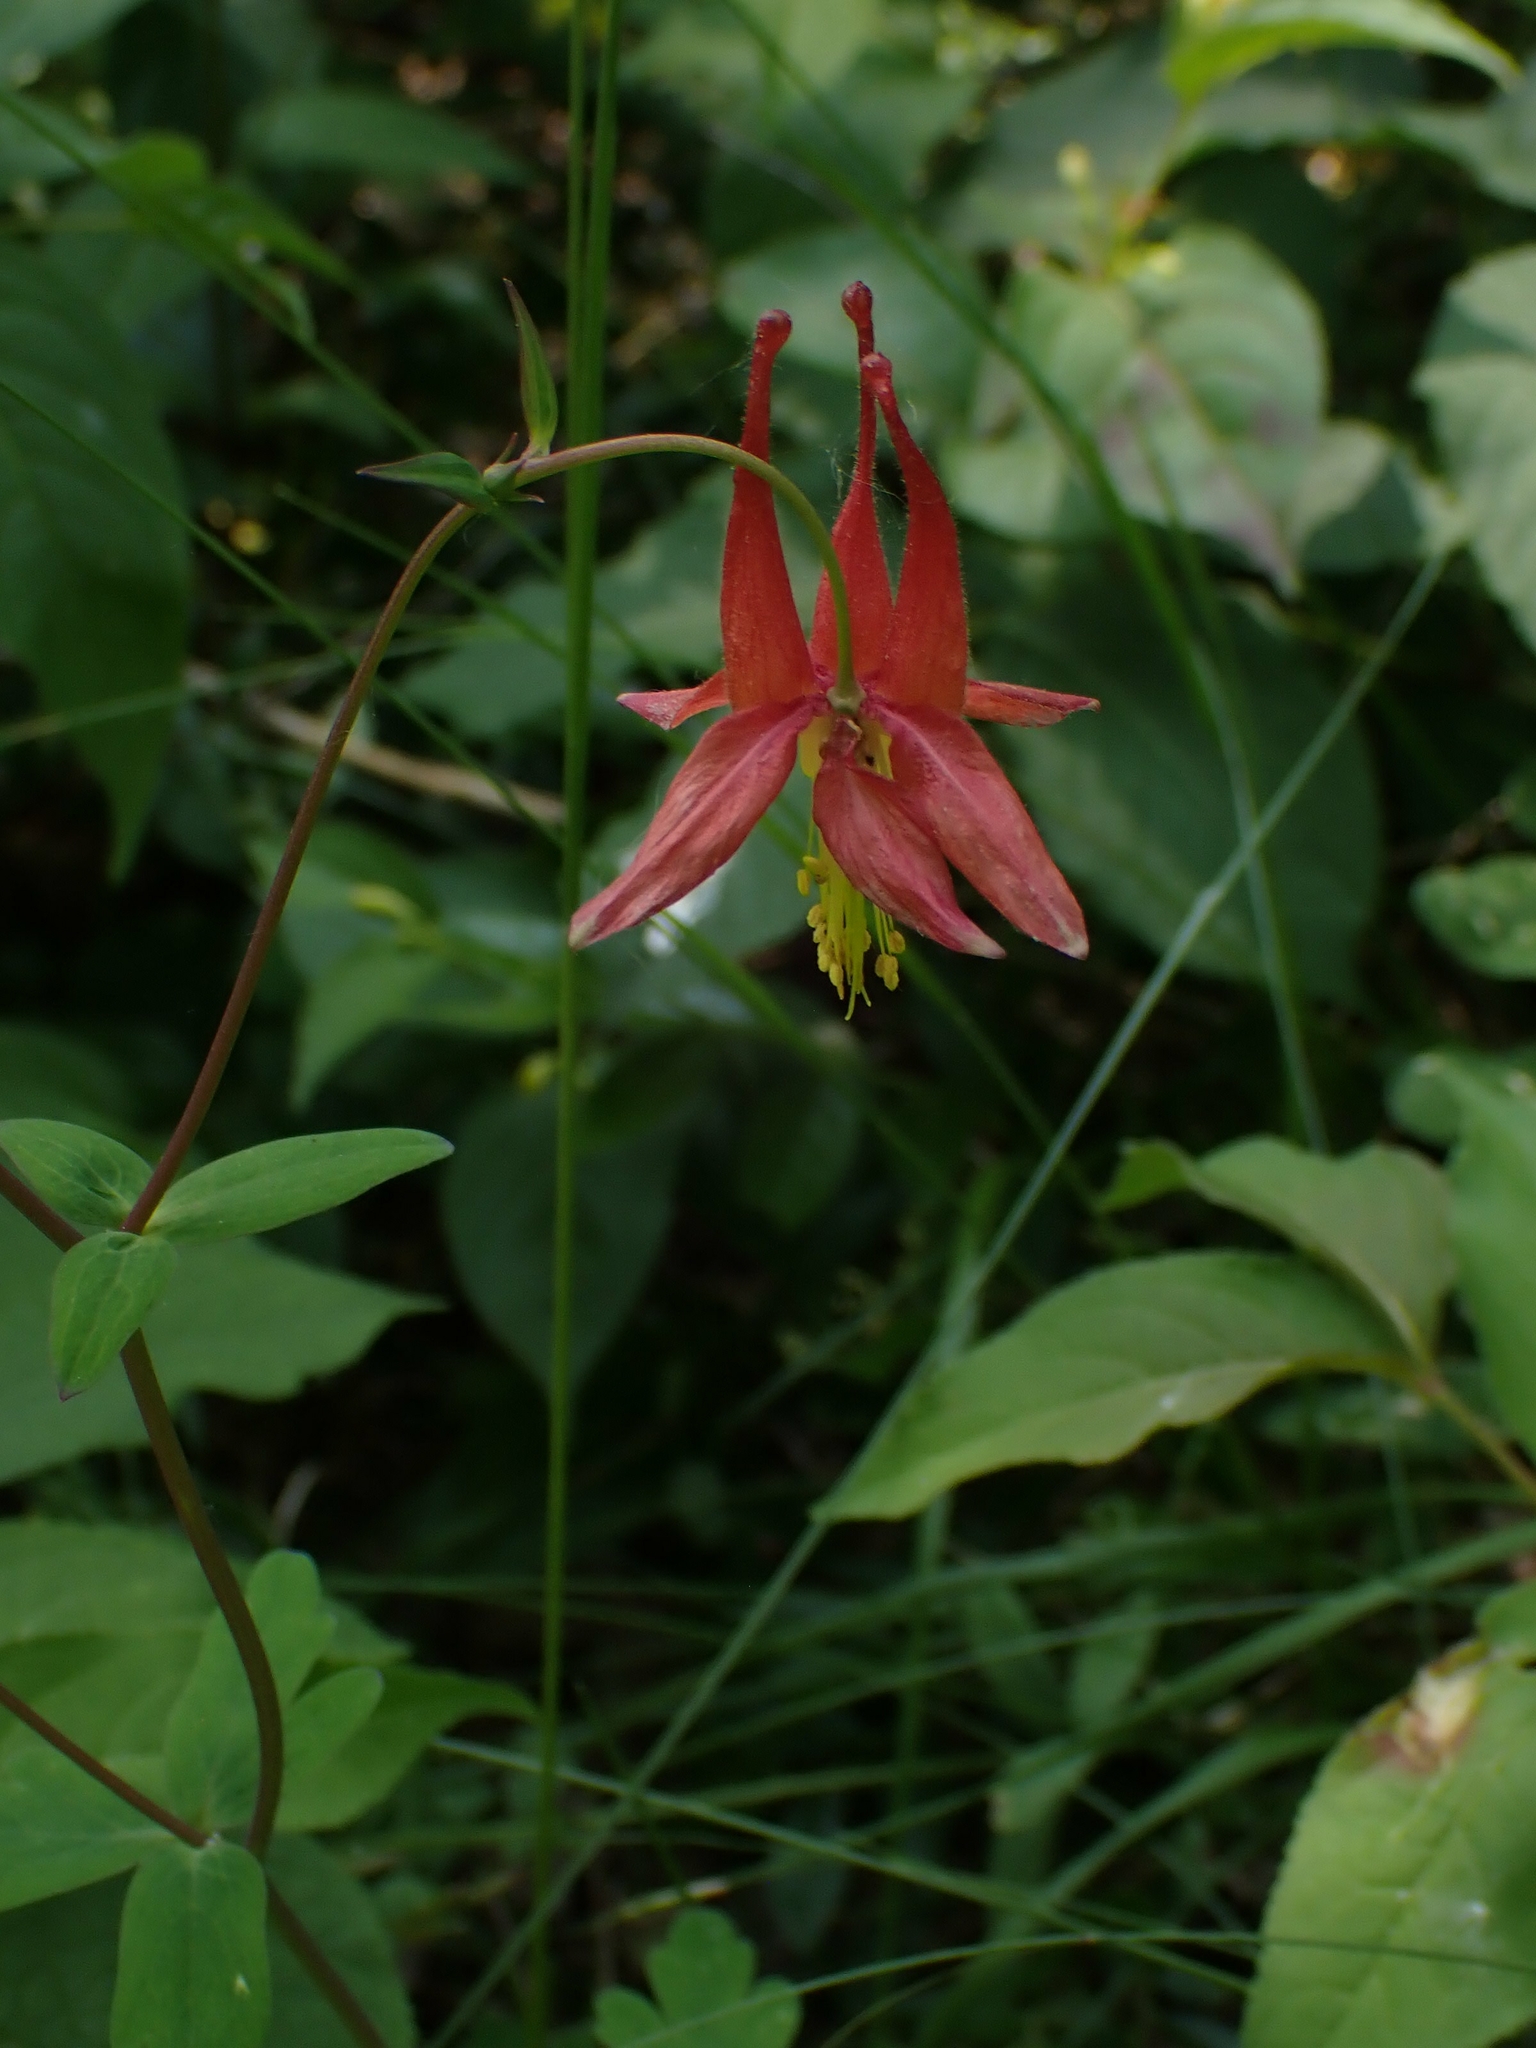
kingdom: Plantae
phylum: Tracheophyta
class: Magnoliopsida
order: Ranunculales
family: Ranunculaceae
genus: Aquilegia
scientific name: Aquilegia canadensis
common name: American columbine
